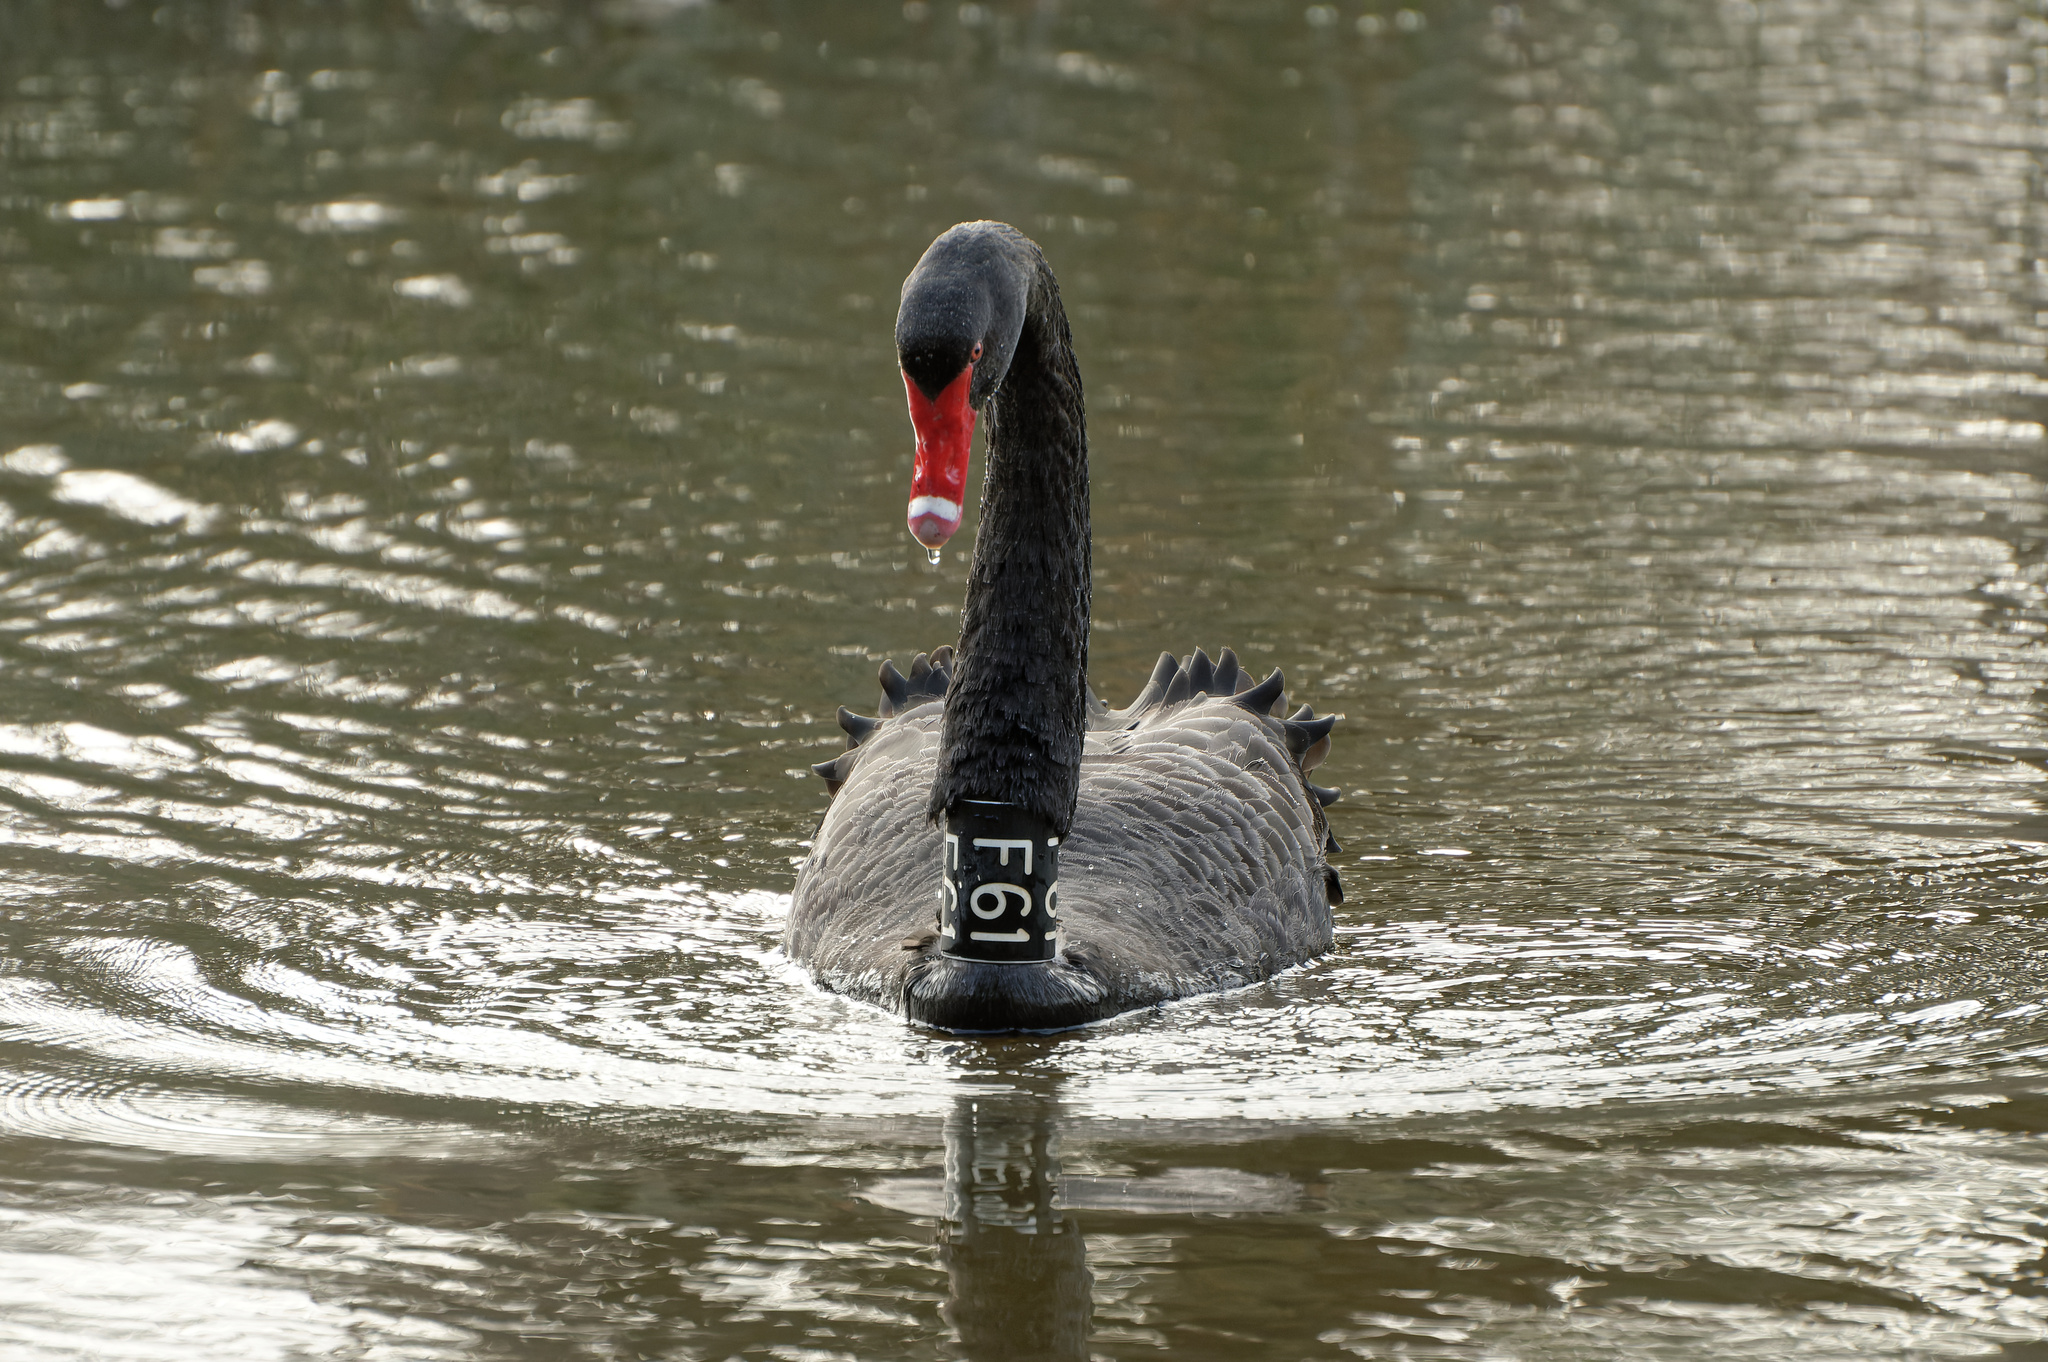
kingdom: Animalia
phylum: Chordata
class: Aves
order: Anseriformes
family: Anatidae
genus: Cygnus
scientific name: Cygnus atratus
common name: Black swan
